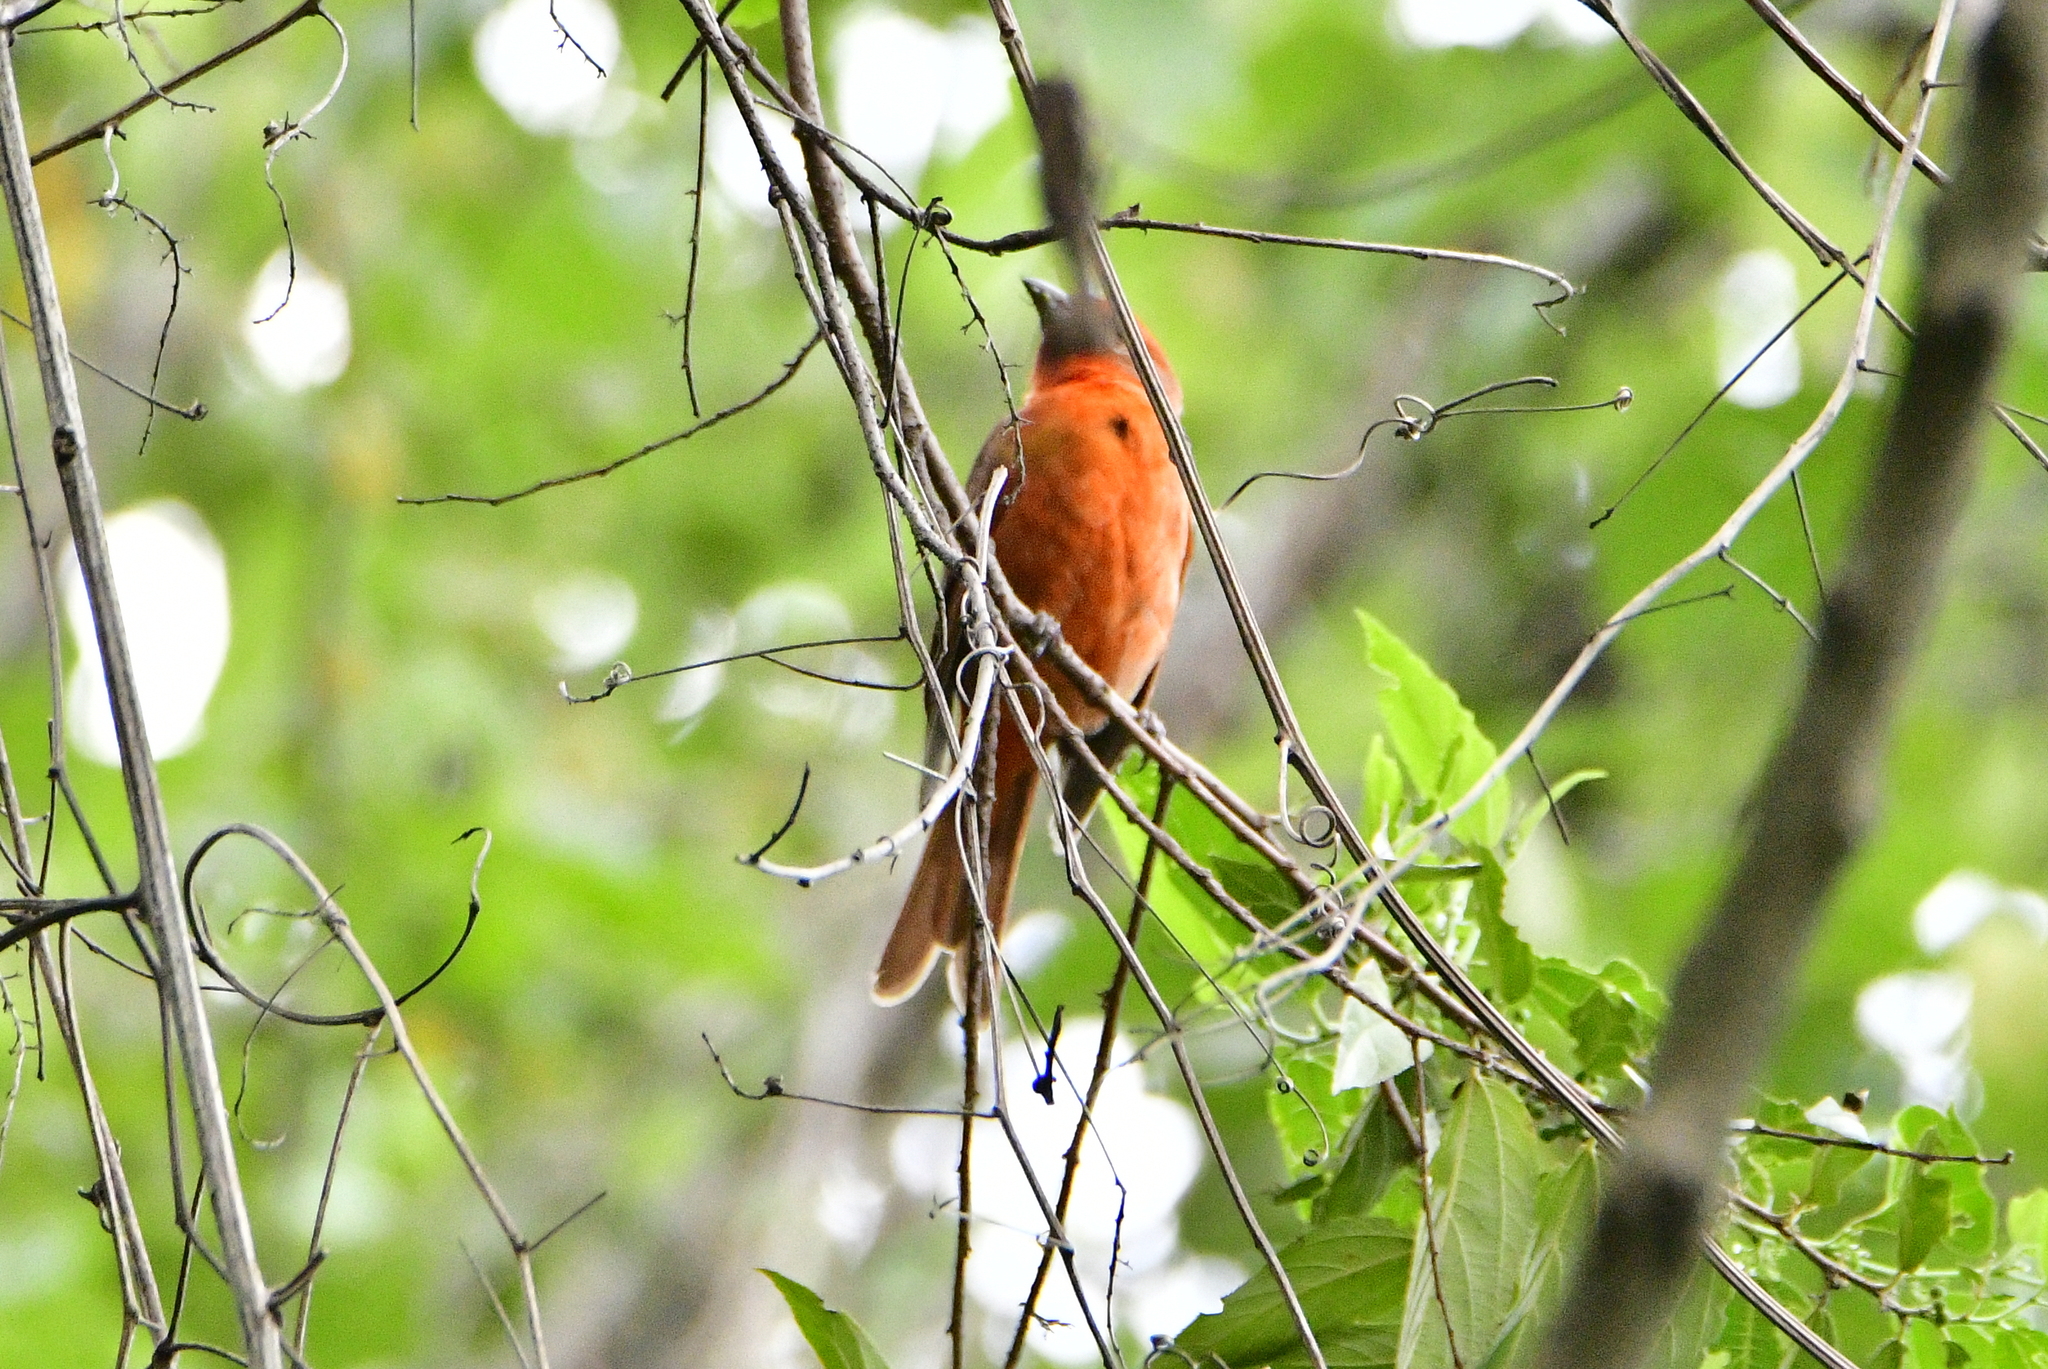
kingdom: Animalia
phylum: Chordata
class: Aves
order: Passeriformes
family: Cardinalidae
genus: Piranga
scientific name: Piranga flava
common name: Red tanager
